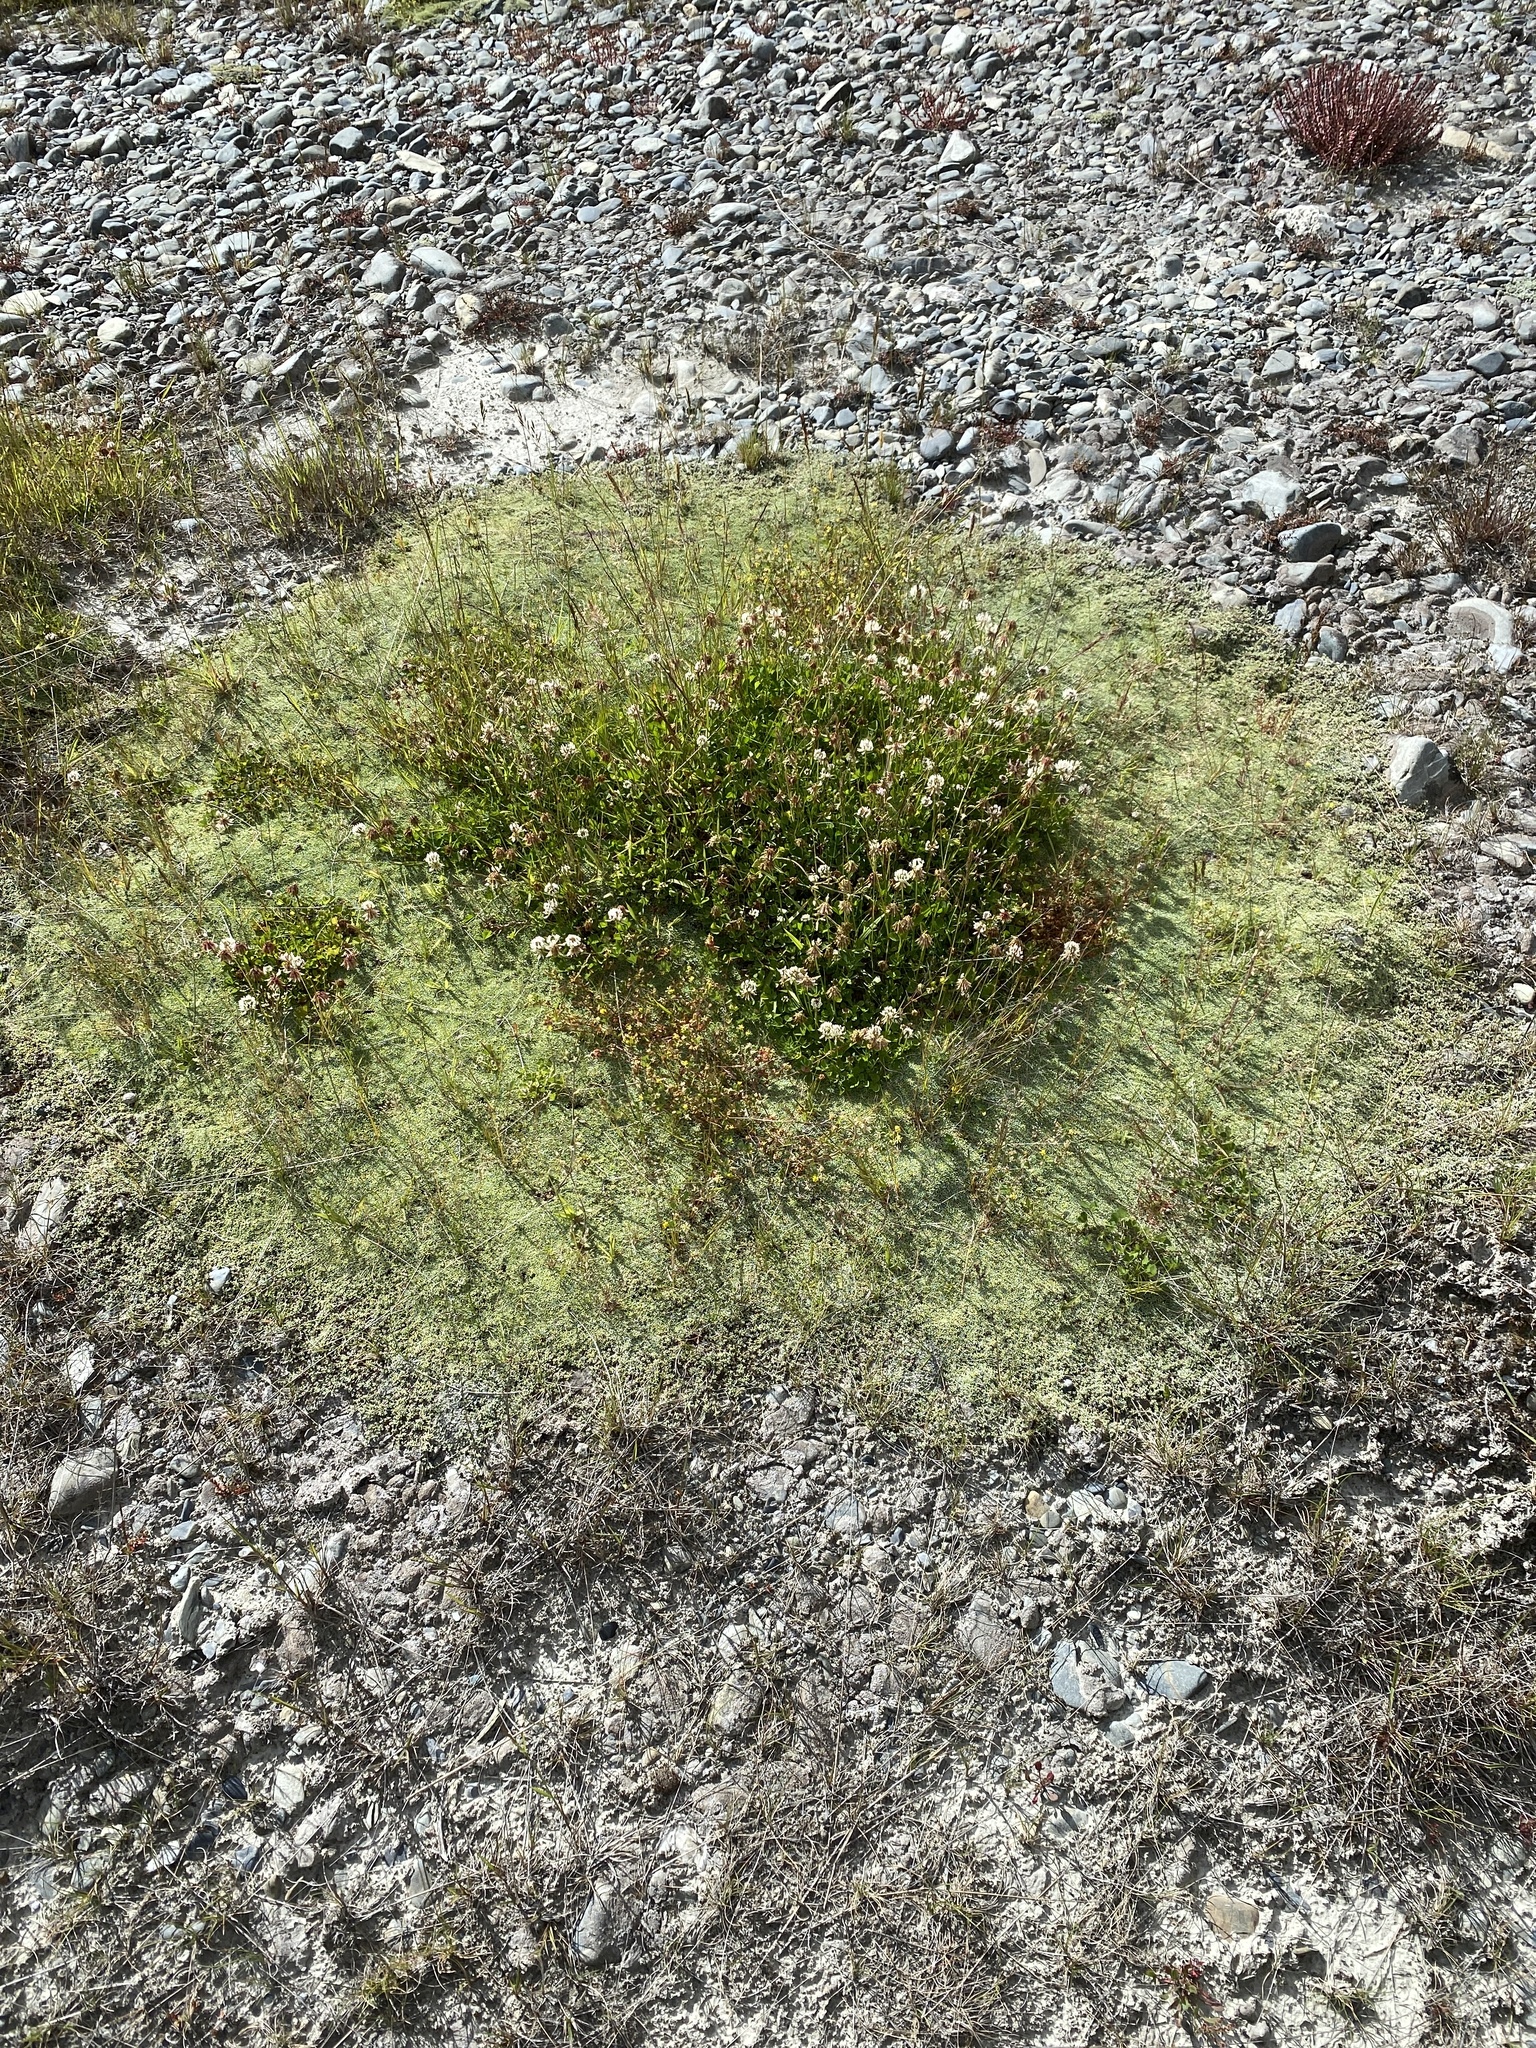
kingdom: Plantae
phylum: Tracheophyta
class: Magnoliopsida
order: Asterales
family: Asteraceae
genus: Raoulia
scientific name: Raoulia tenuicaulis
